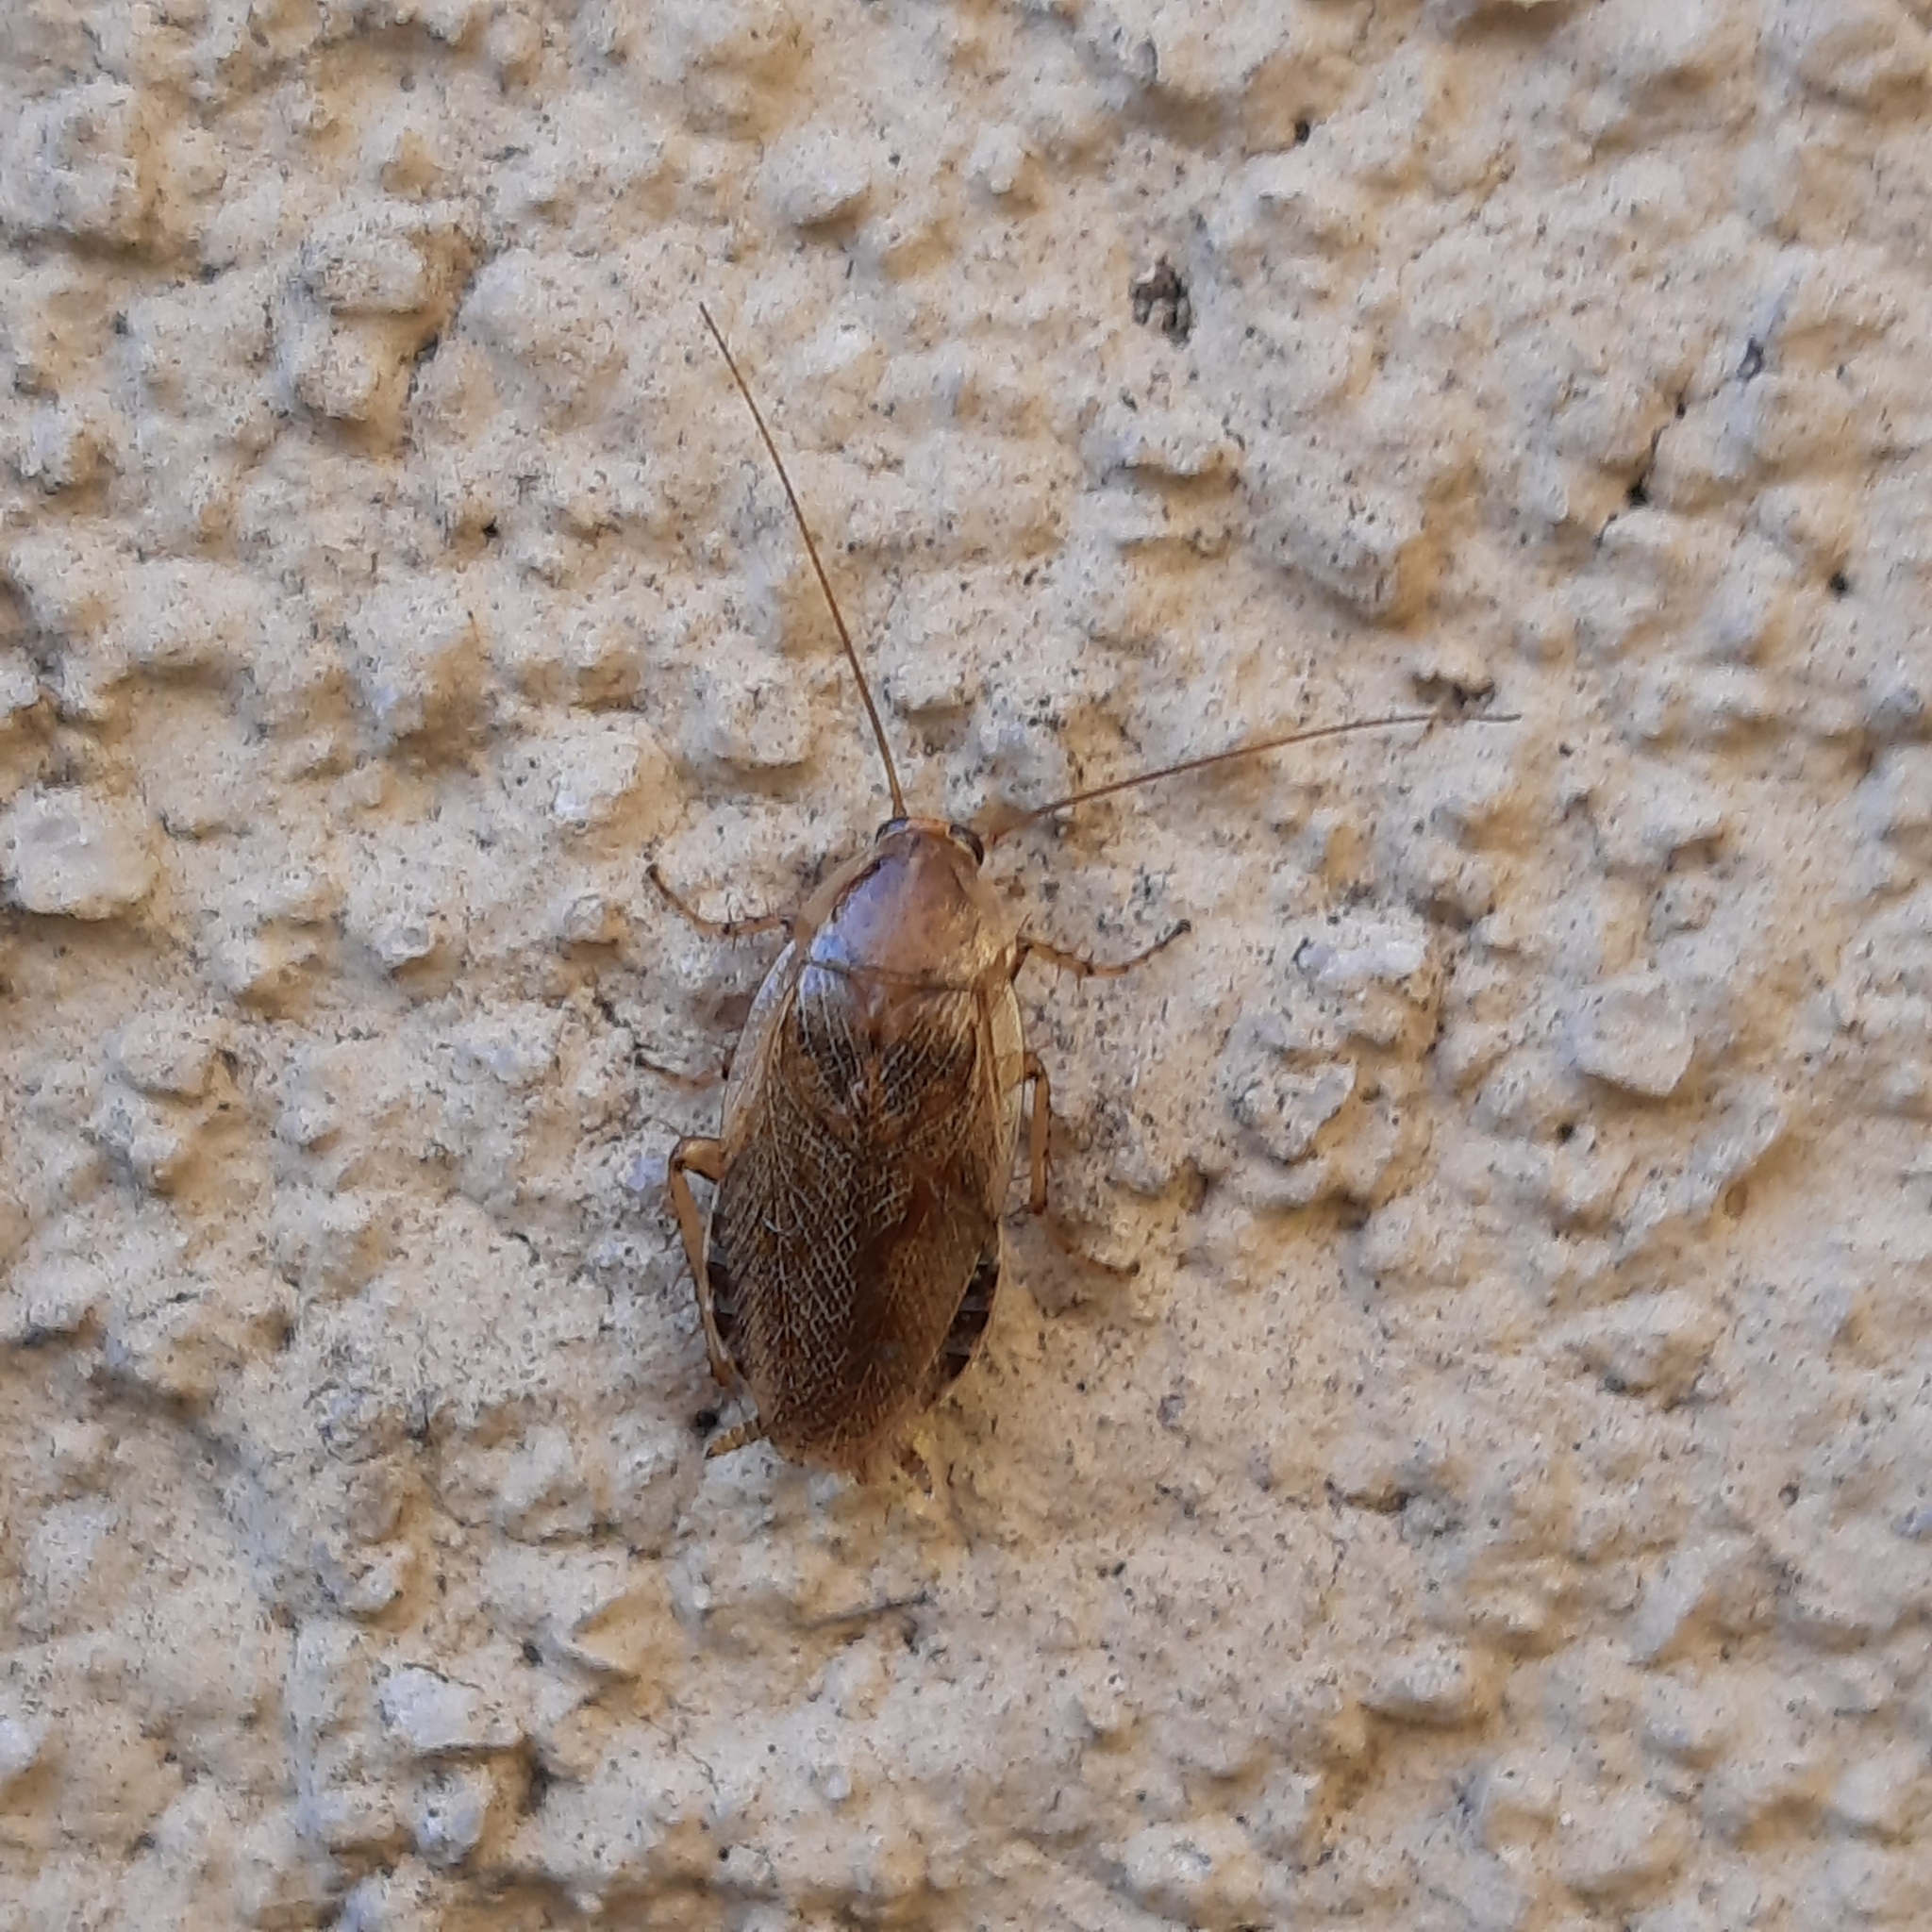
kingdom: Animalia
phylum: Arthropoda
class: Insecta
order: Blattodea
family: Ectobiidae
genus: Ectobius
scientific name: Ectobius vittiventris
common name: Garden cockroach
